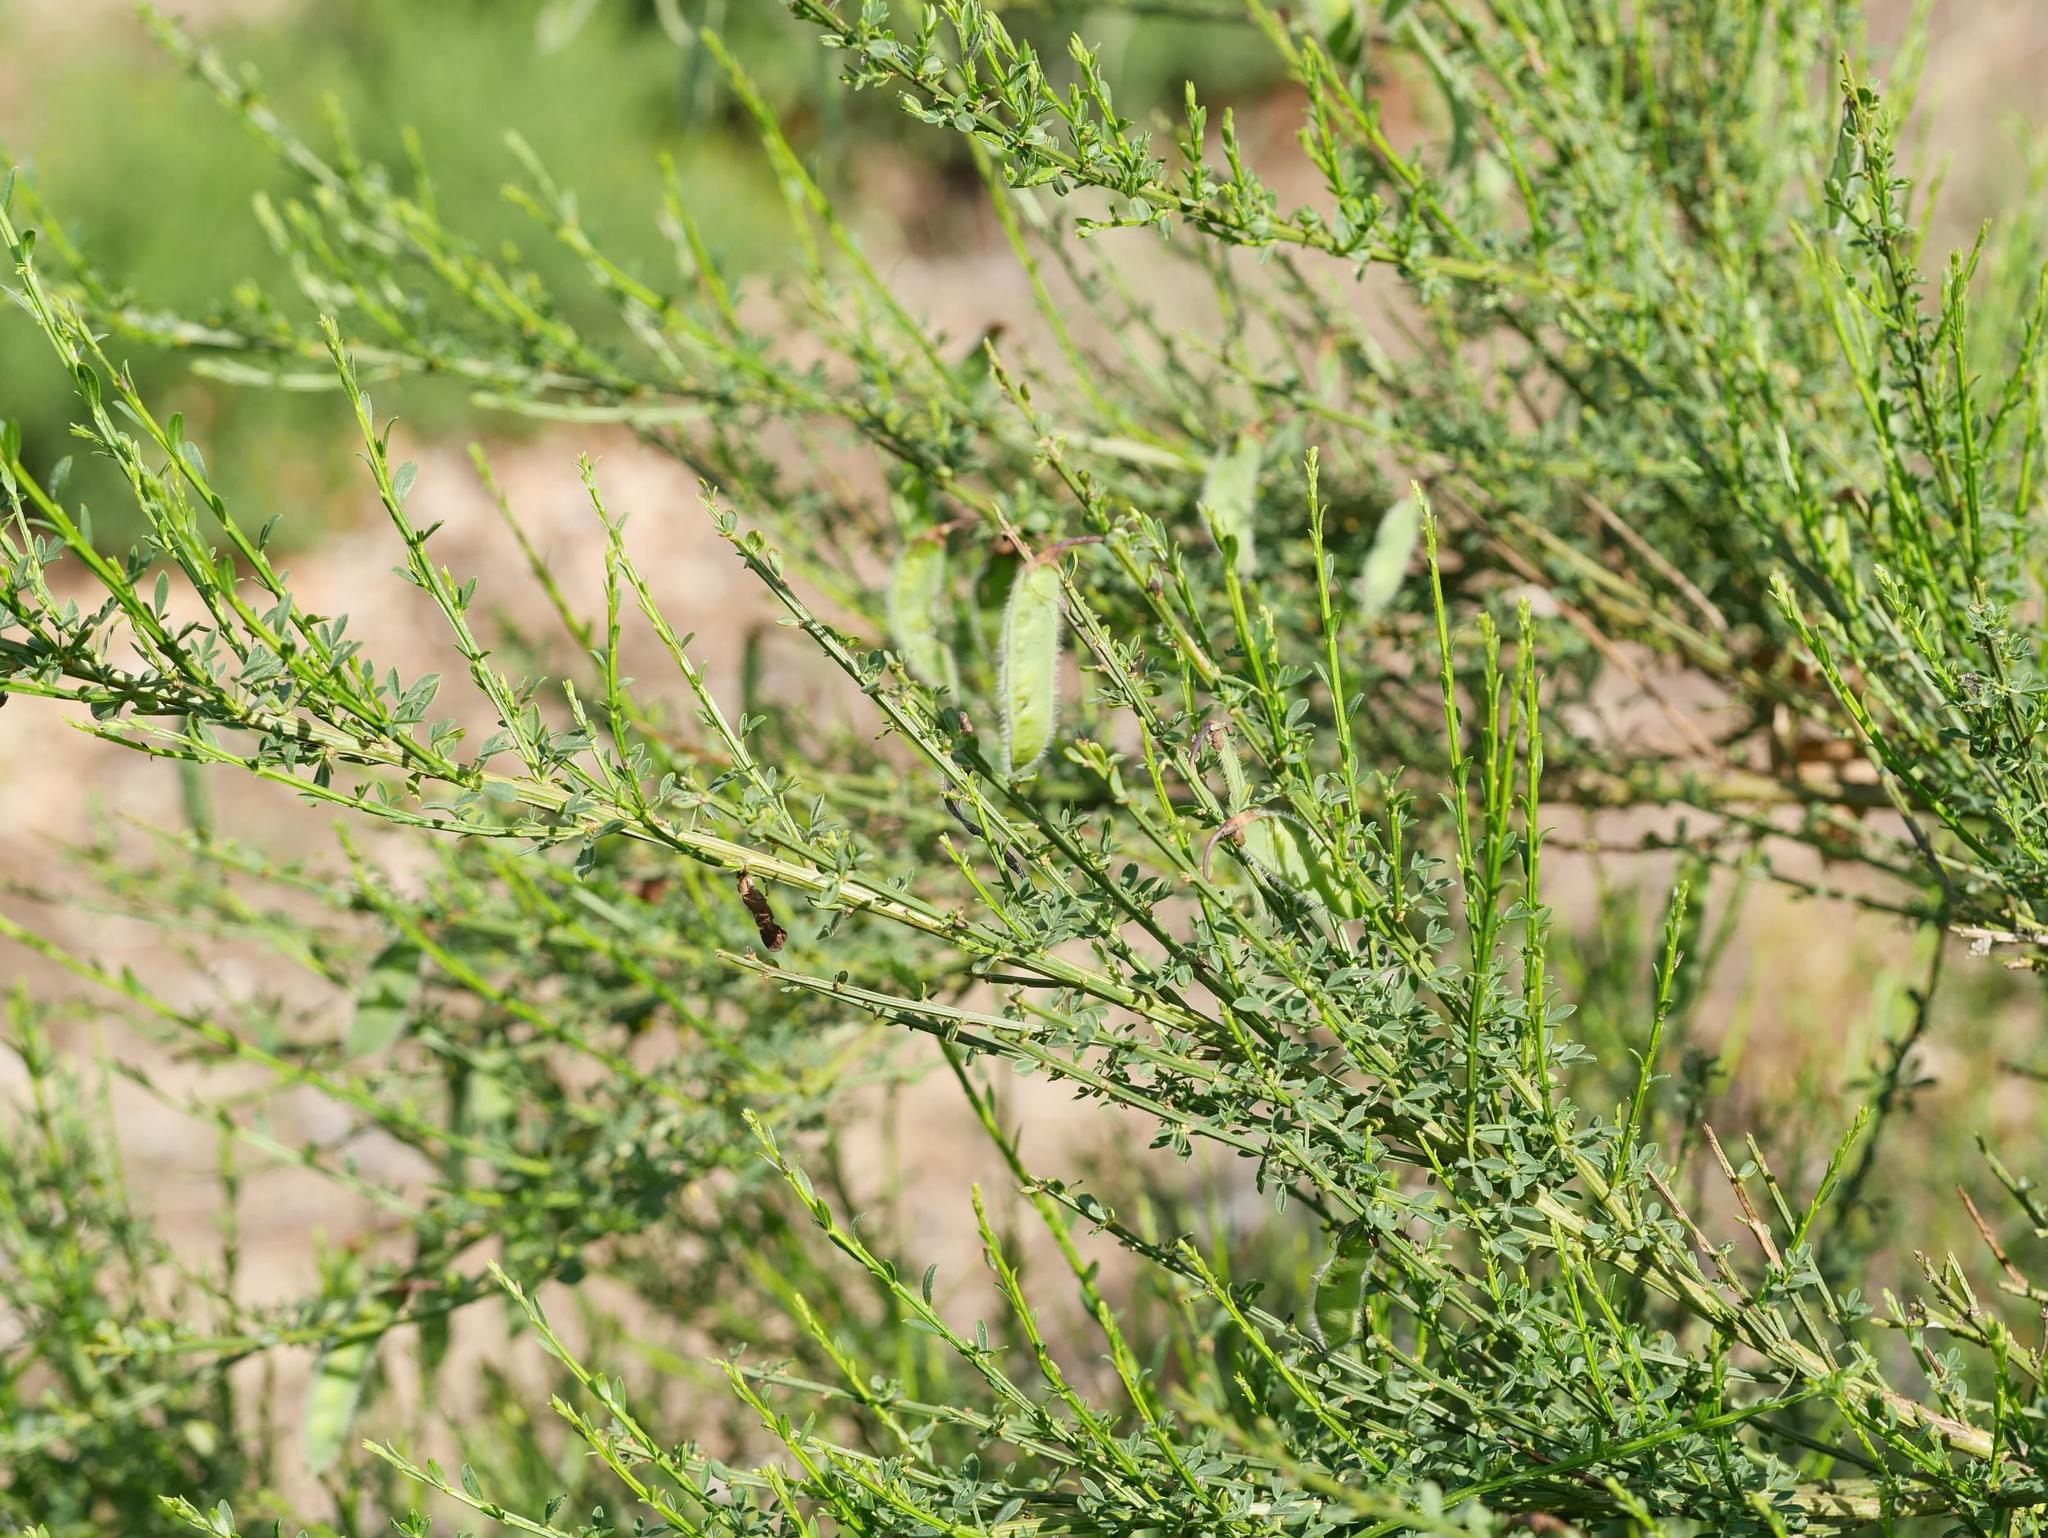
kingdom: Plantae
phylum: Tracheophyta
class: Magnoliopsida
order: Fabales
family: Fabaceae
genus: Cytisus
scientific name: Cytisus scoparius
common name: Scotch broom
